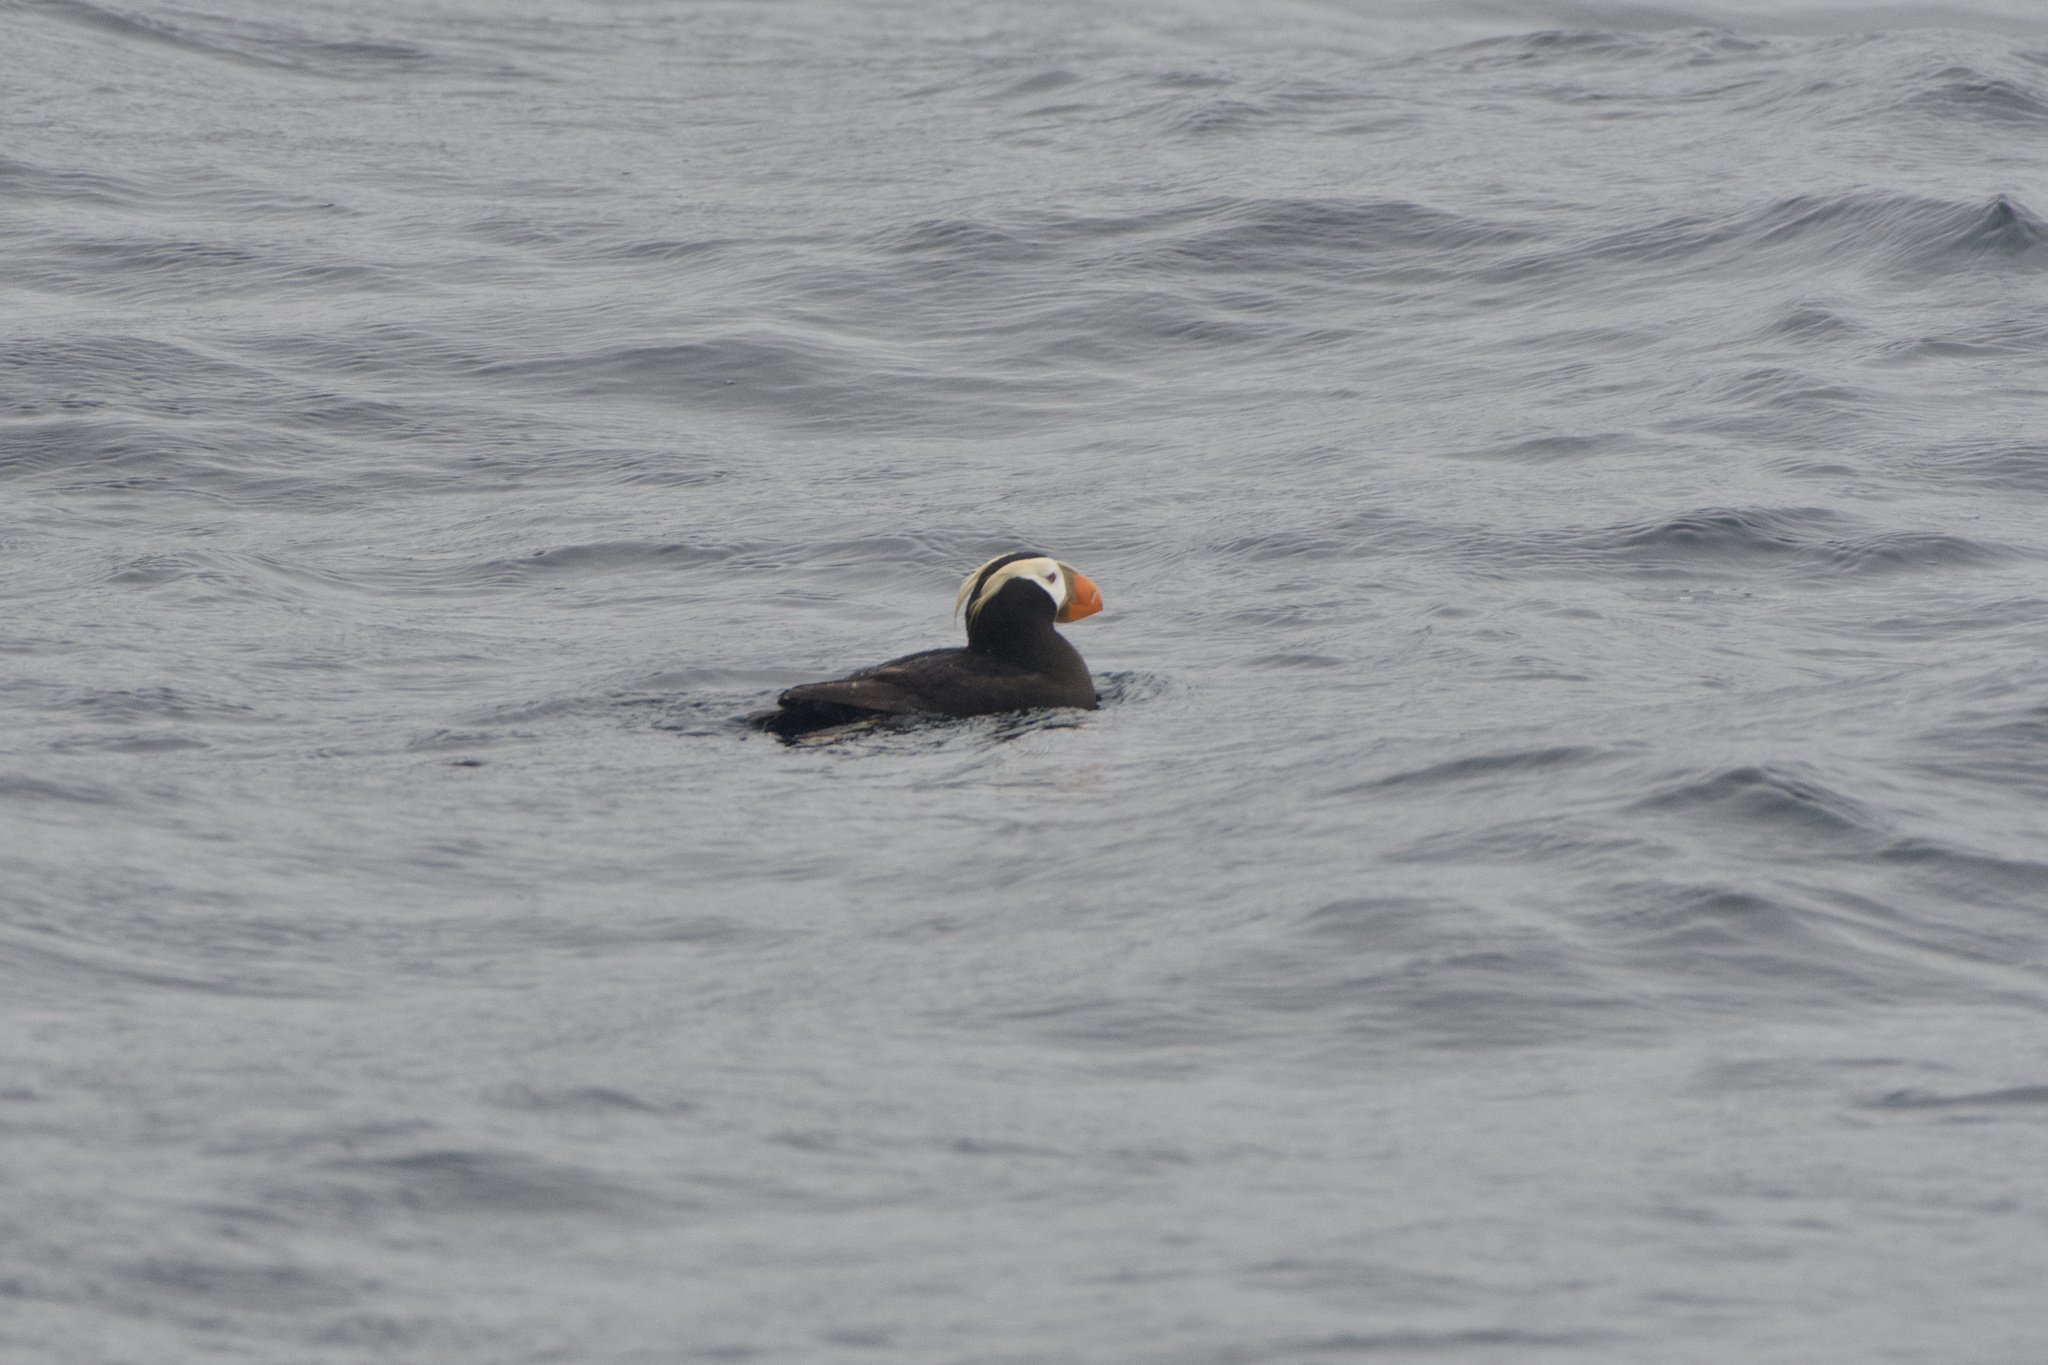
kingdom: Animalia
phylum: Chordata
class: Aves
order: Charadriiformes
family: Alcidae
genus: Fratercula
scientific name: Fratercula cirrhata
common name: Tufted puffin
